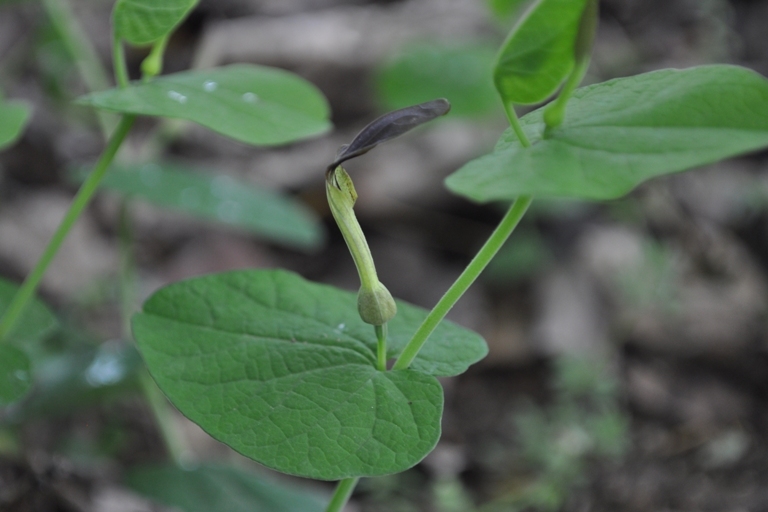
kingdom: Plantae
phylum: Tracheophyta
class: Magnoliopsida
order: Piperales
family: Aristolochiaceae
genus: Aristolochia
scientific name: Aristolochia rotunda
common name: Smearwort
